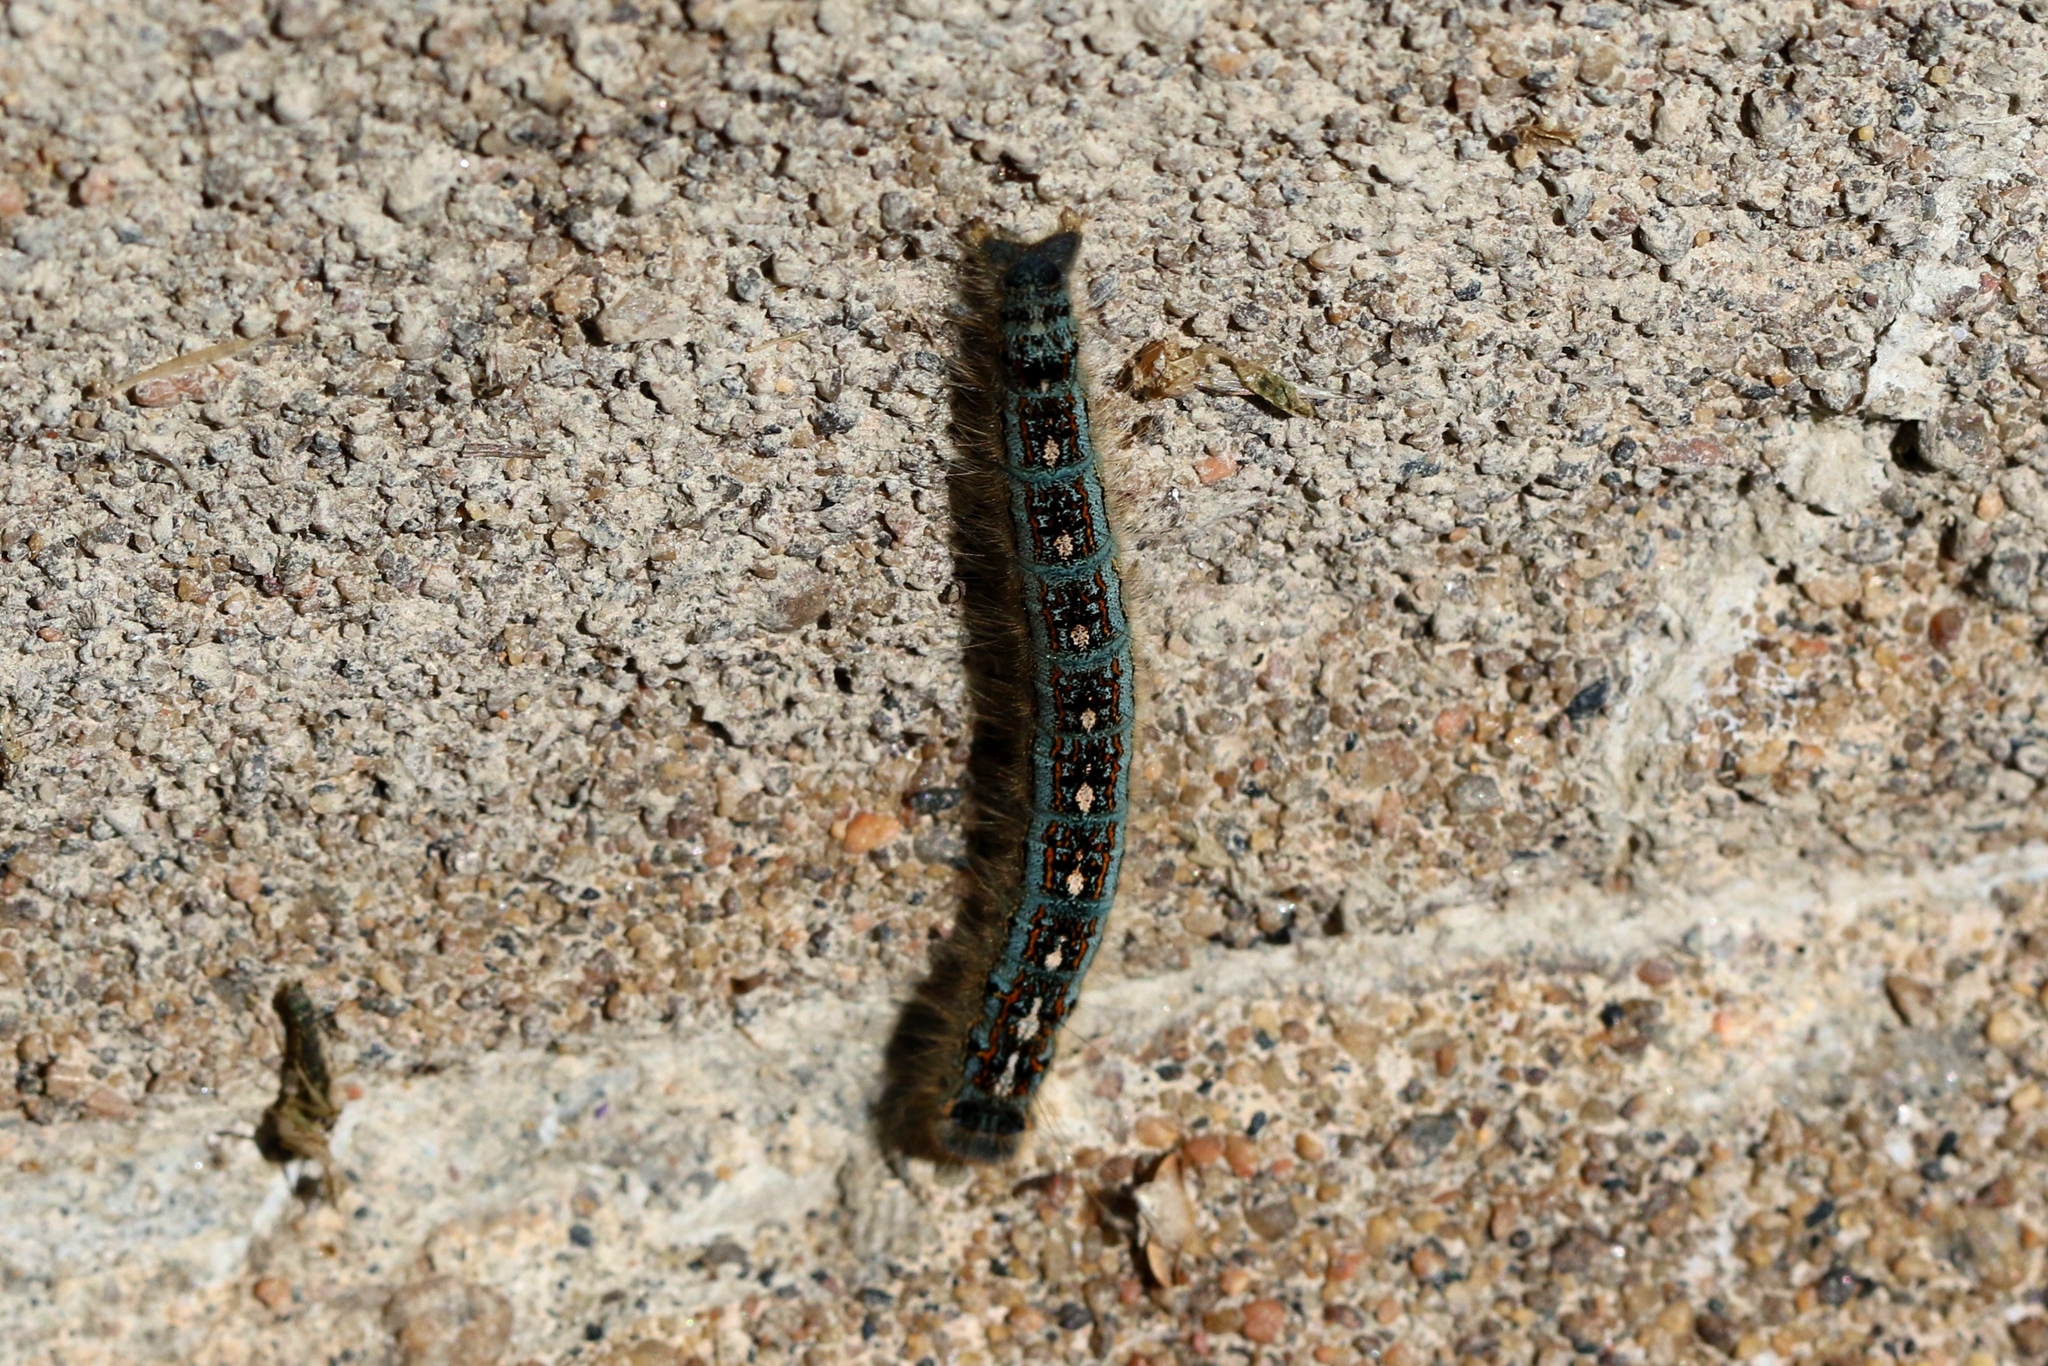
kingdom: Animalia
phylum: Arthropoda
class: Insecta
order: Lepidoptera
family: Lasiocampidae
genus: Malacosoma
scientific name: Malacosoma disstria
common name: Forest tent caterpillar
